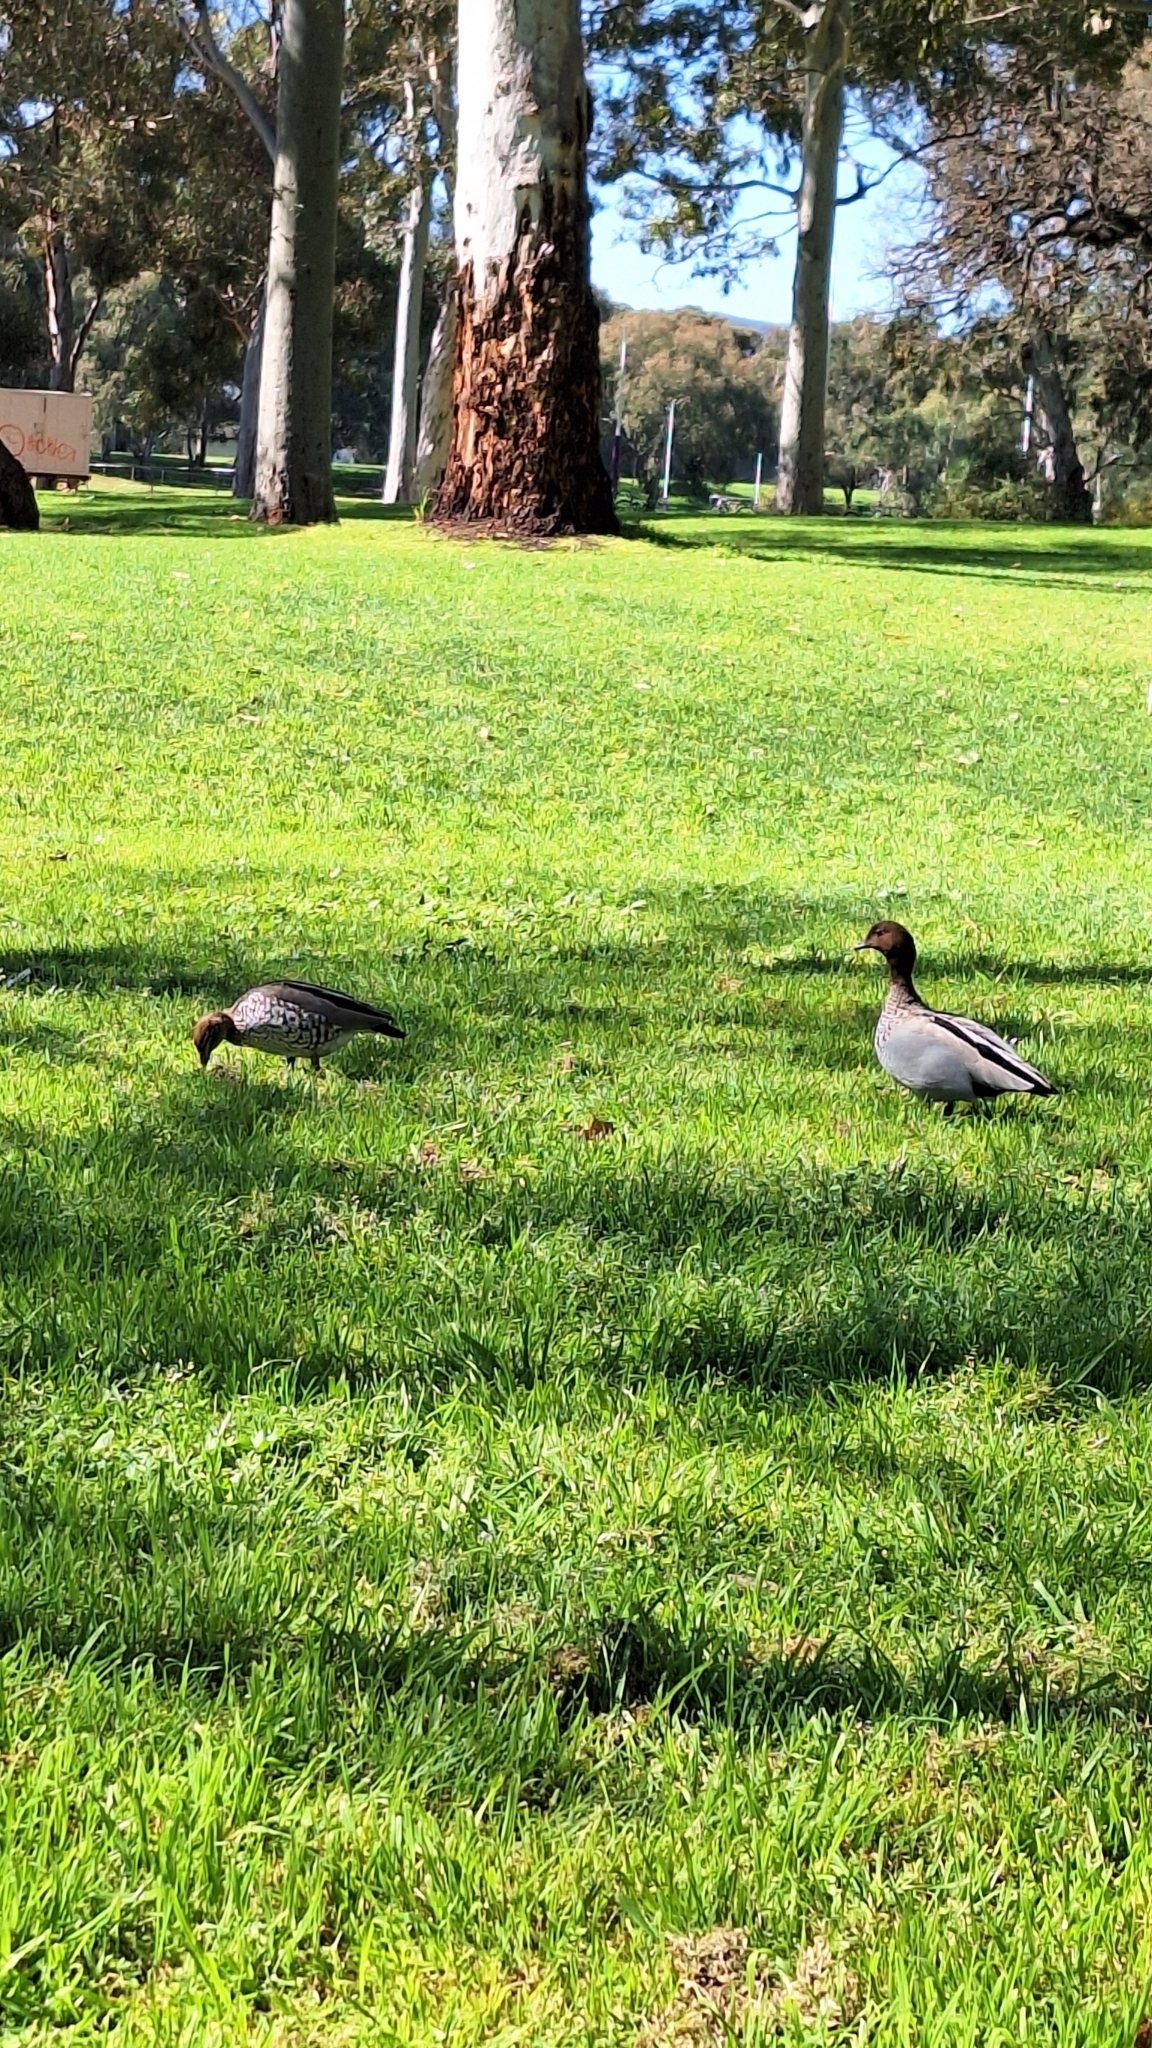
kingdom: Animalia
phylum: Chordata
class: Aves
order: Anseriformes
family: Anatidae
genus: Chenonetta
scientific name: Chenonetta jubata
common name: Maned duck
